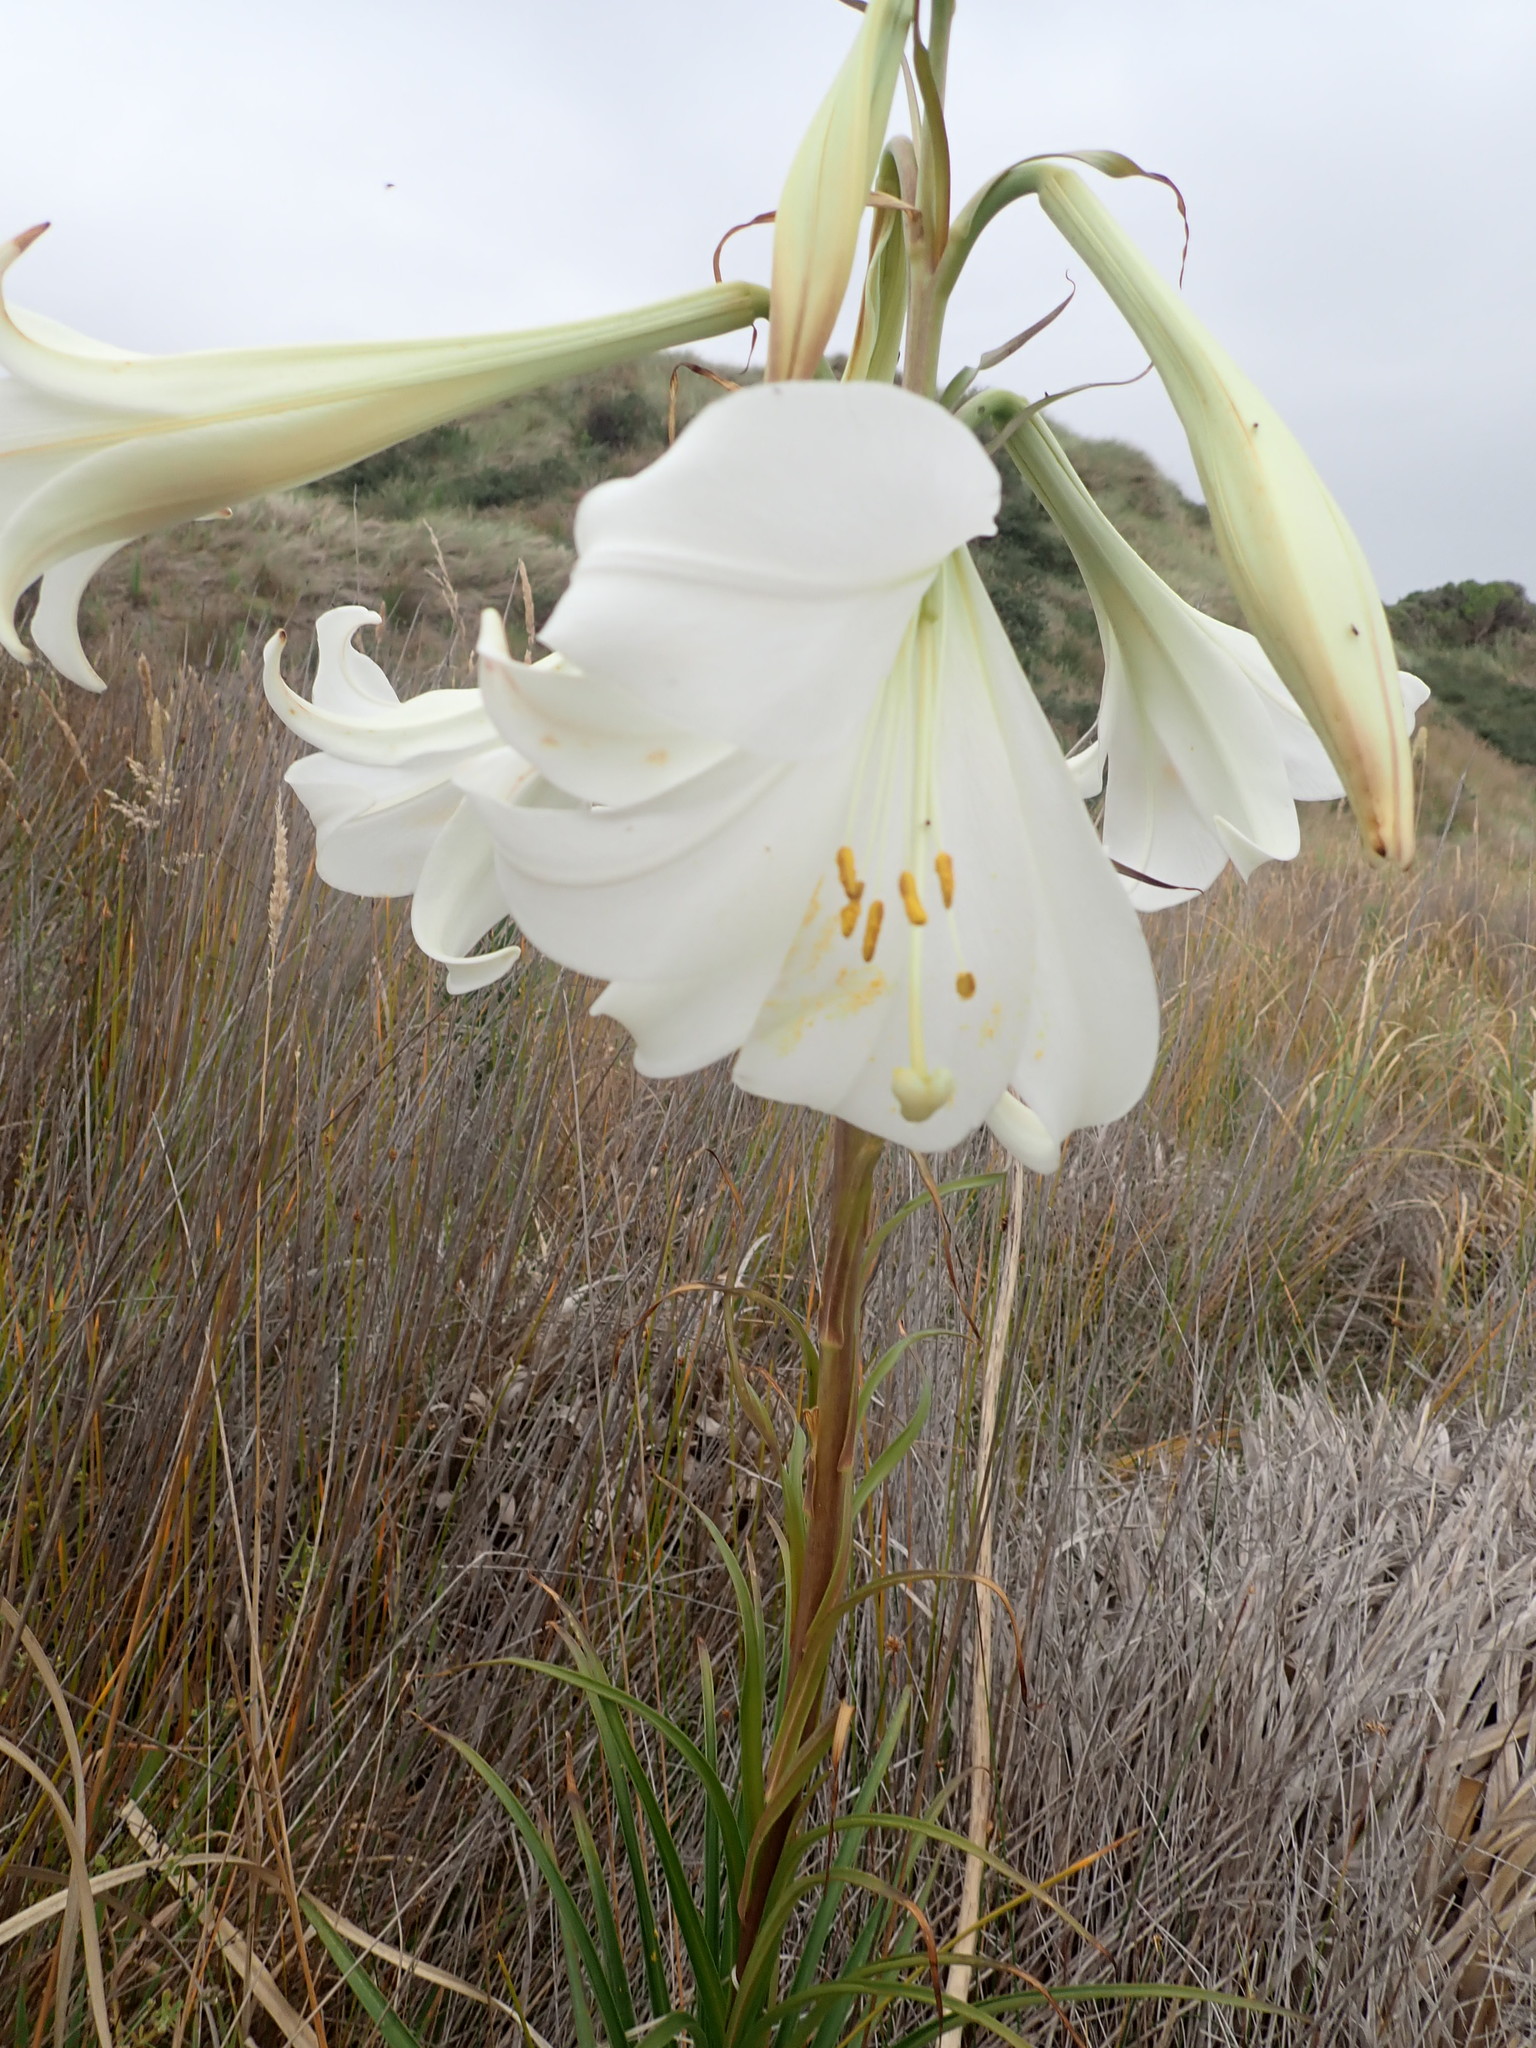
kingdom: Plantae
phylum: Tracheophyta
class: Liliopsida
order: Liliales
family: Liliaceae
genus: Lilium
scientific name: Lilium formosanum
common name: Formosa lily
